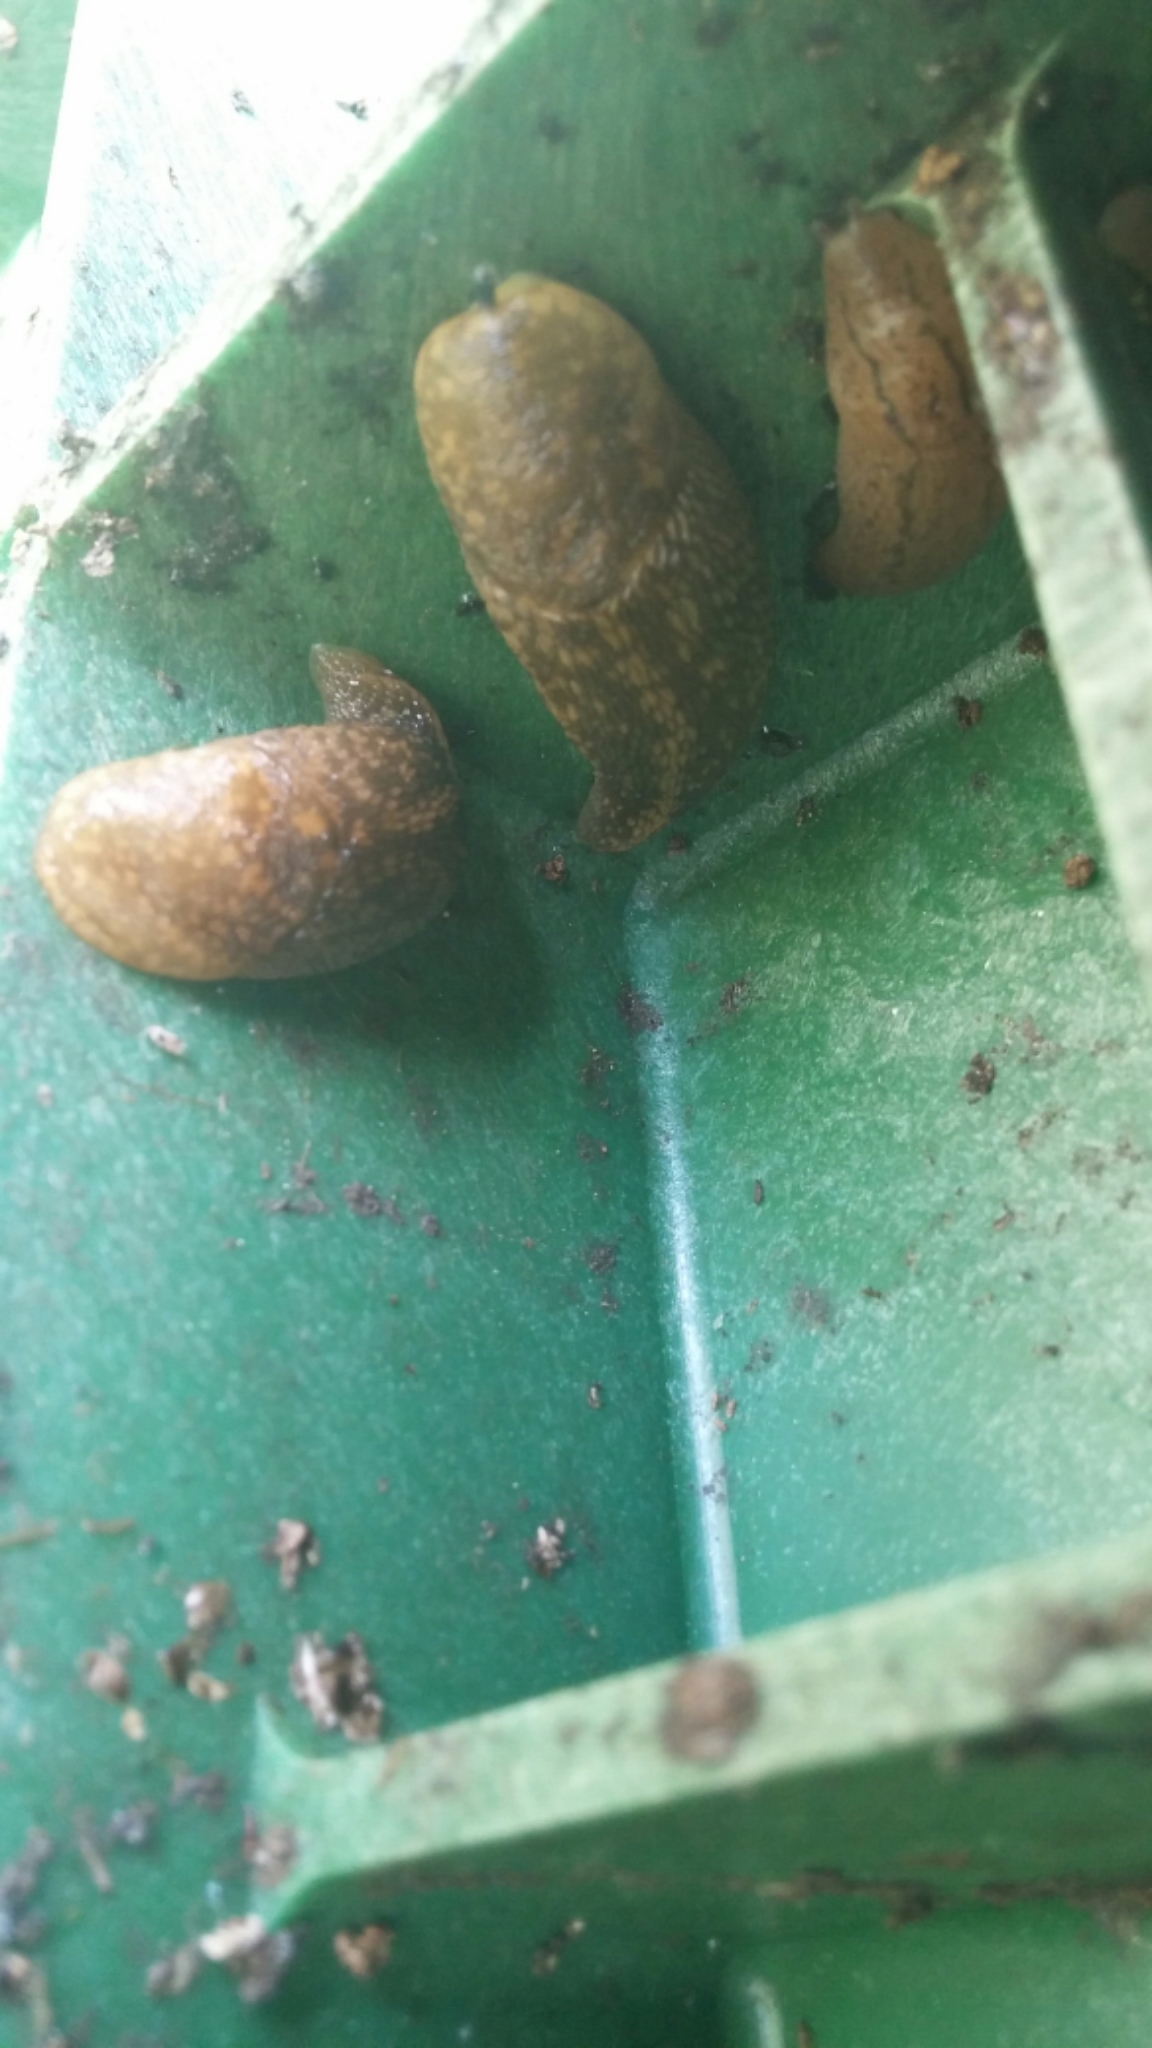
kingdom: Animalia
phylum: Mollusca
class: Gastropoda
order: Stylommatophora
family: Limacidae
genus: Limacus
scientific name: Limacus flavus
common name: Yellow gardenslug
